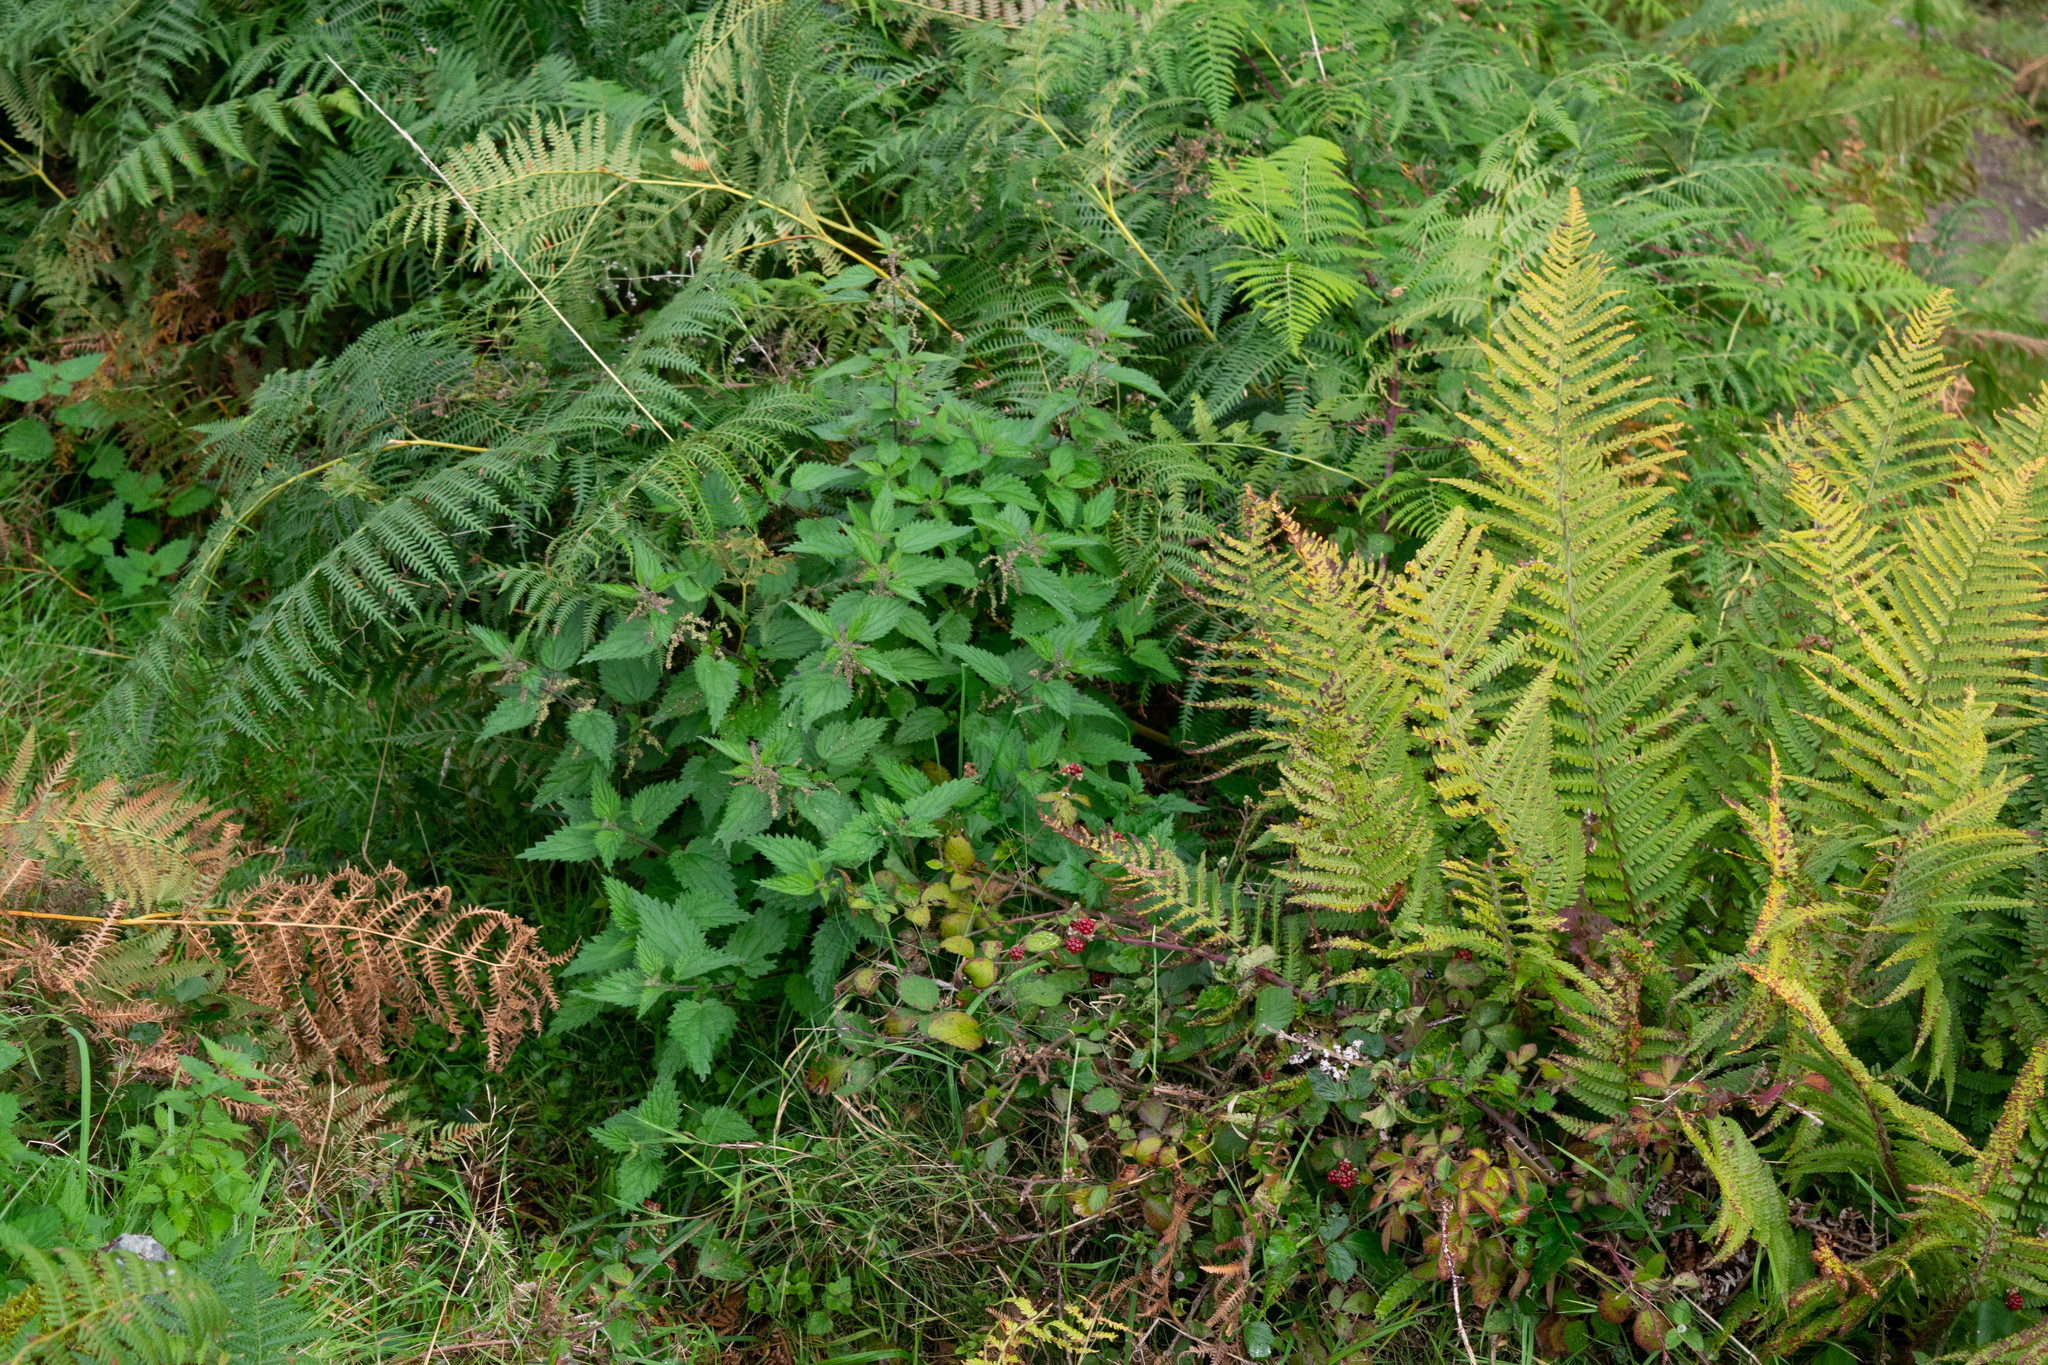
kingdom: Plantae
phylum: Tracheophyta
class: Magnoliopsida
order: Rosales
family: Urticaceae
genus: Urtica
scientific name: Urtica dioica
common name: Common nettle
